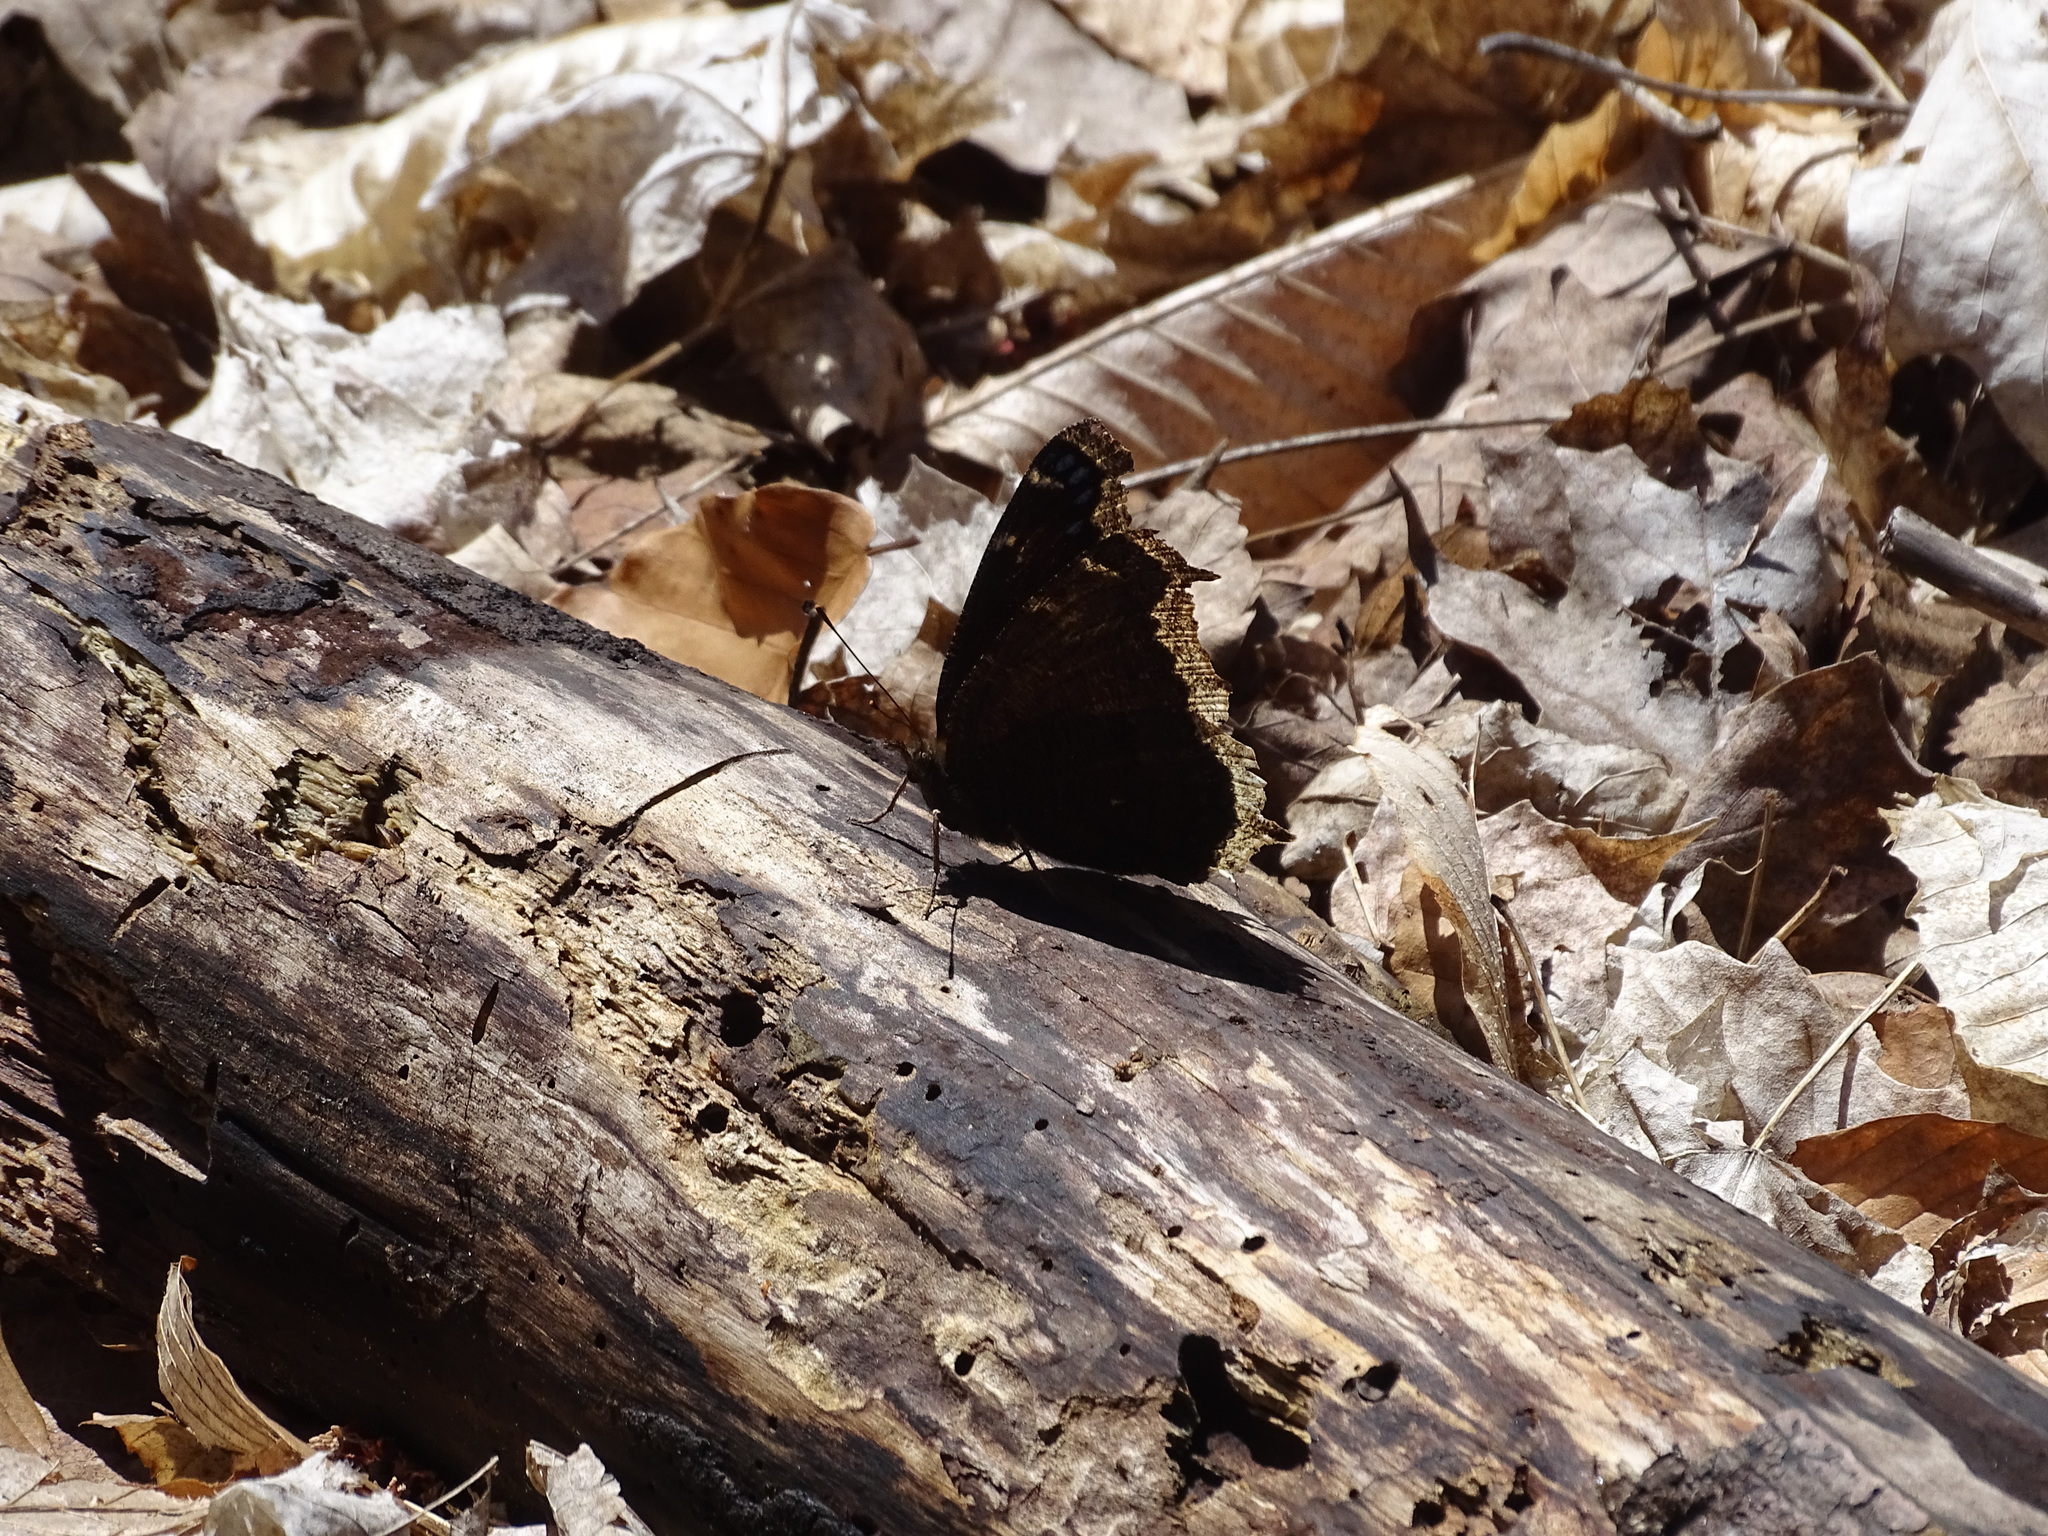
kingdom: Animalia
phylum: Arthropoda
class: Insecta
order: Lepidoptera
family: Nymphalidae
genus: Nymphalis
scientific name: Nymphalis antiopa
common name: Camberwell beauty
